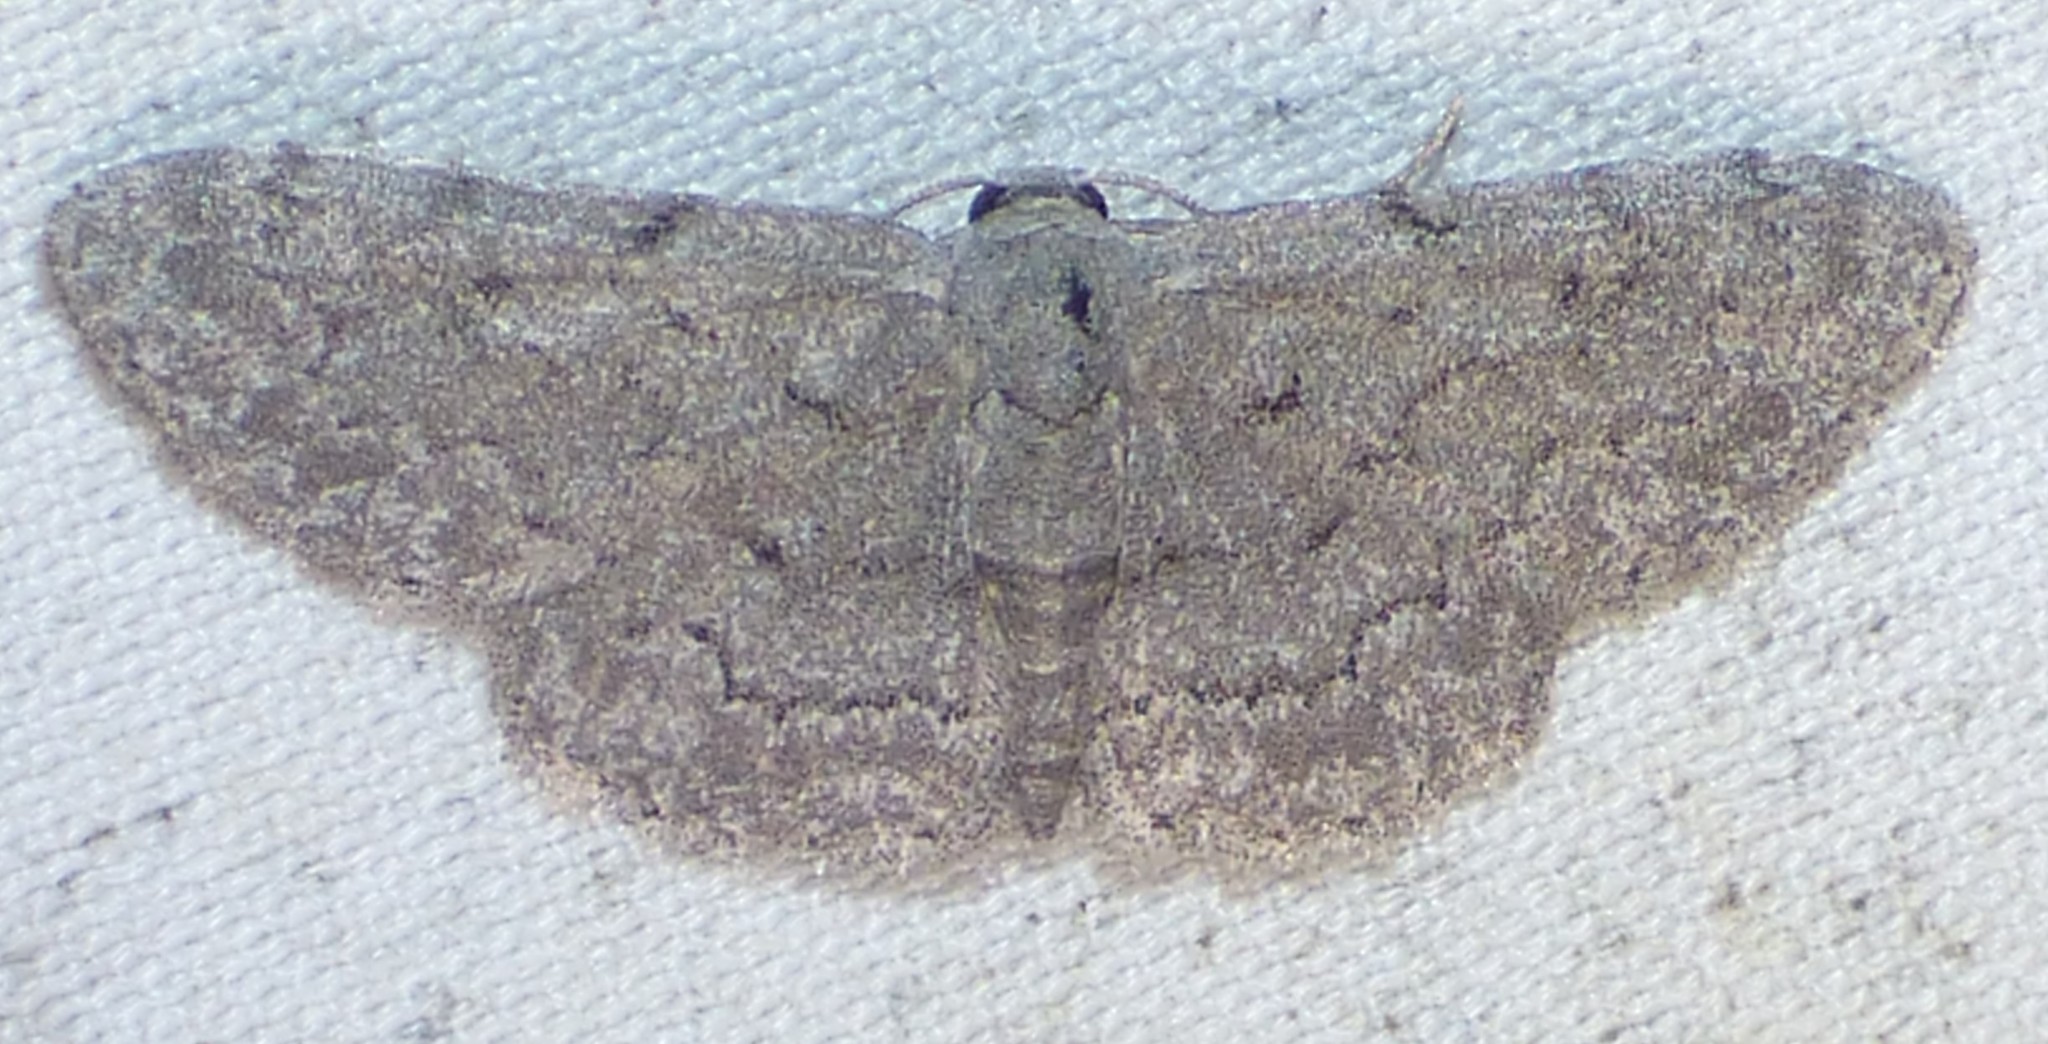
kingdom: Animalia
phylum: Arthropoda
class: Insecta
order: Lepidoptera
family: Geometridae
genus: Idaea
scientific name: Idaea violacearia
